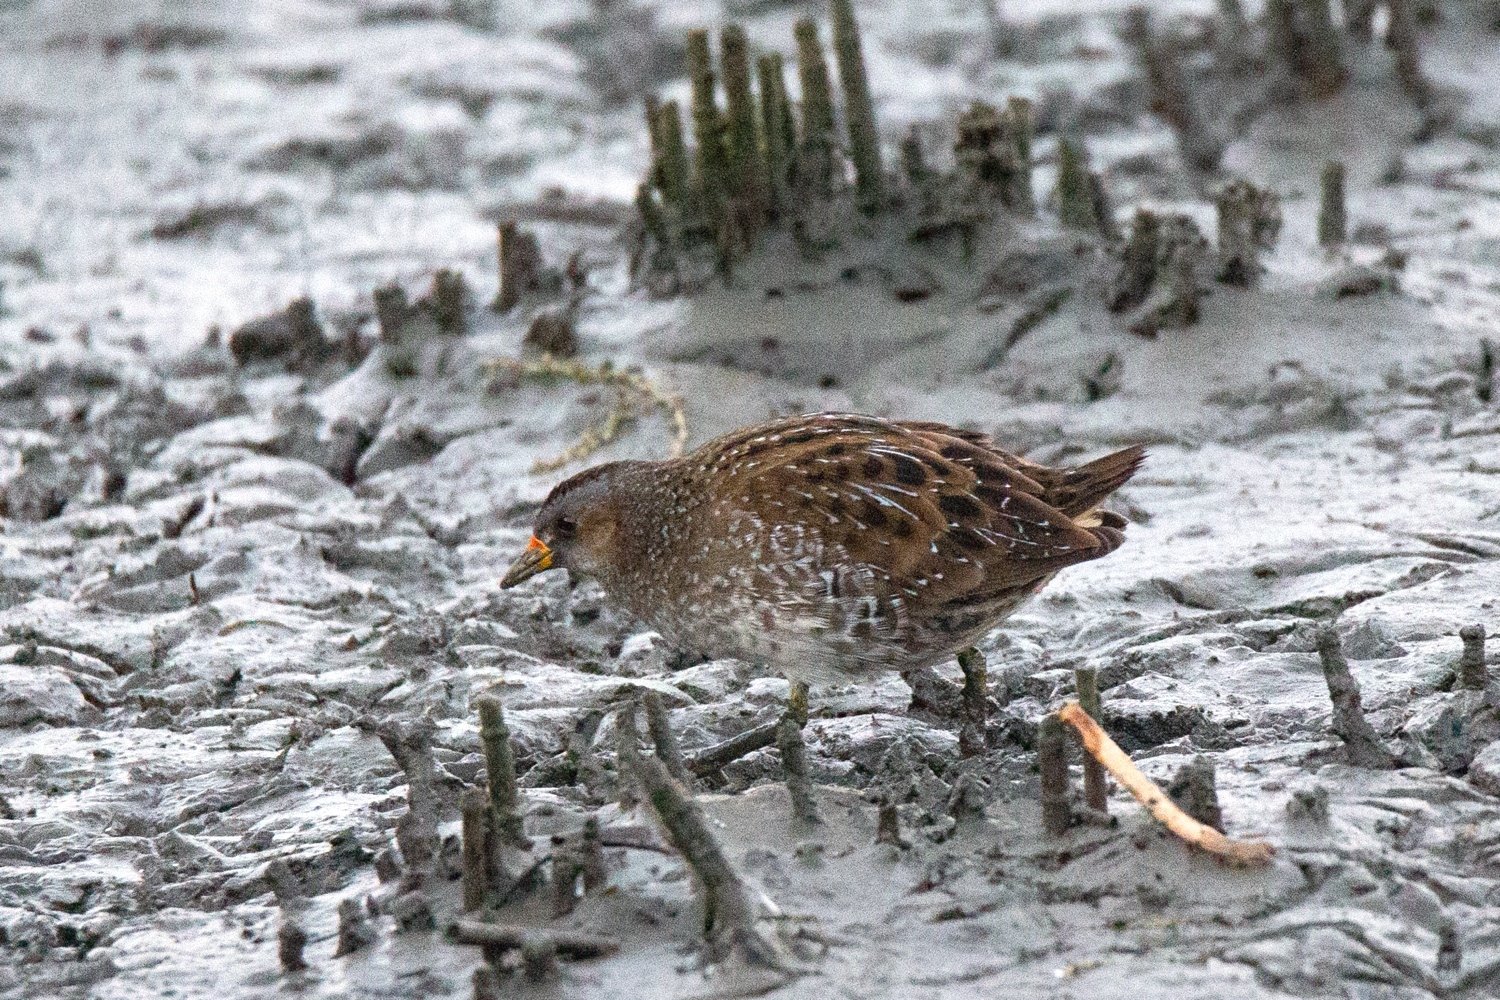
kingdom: Animalia
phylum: Chordata
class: Aves
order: Gruiformes
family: Rallidae
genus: Porzana
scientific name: Porzana porzana
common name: Spotted crake
